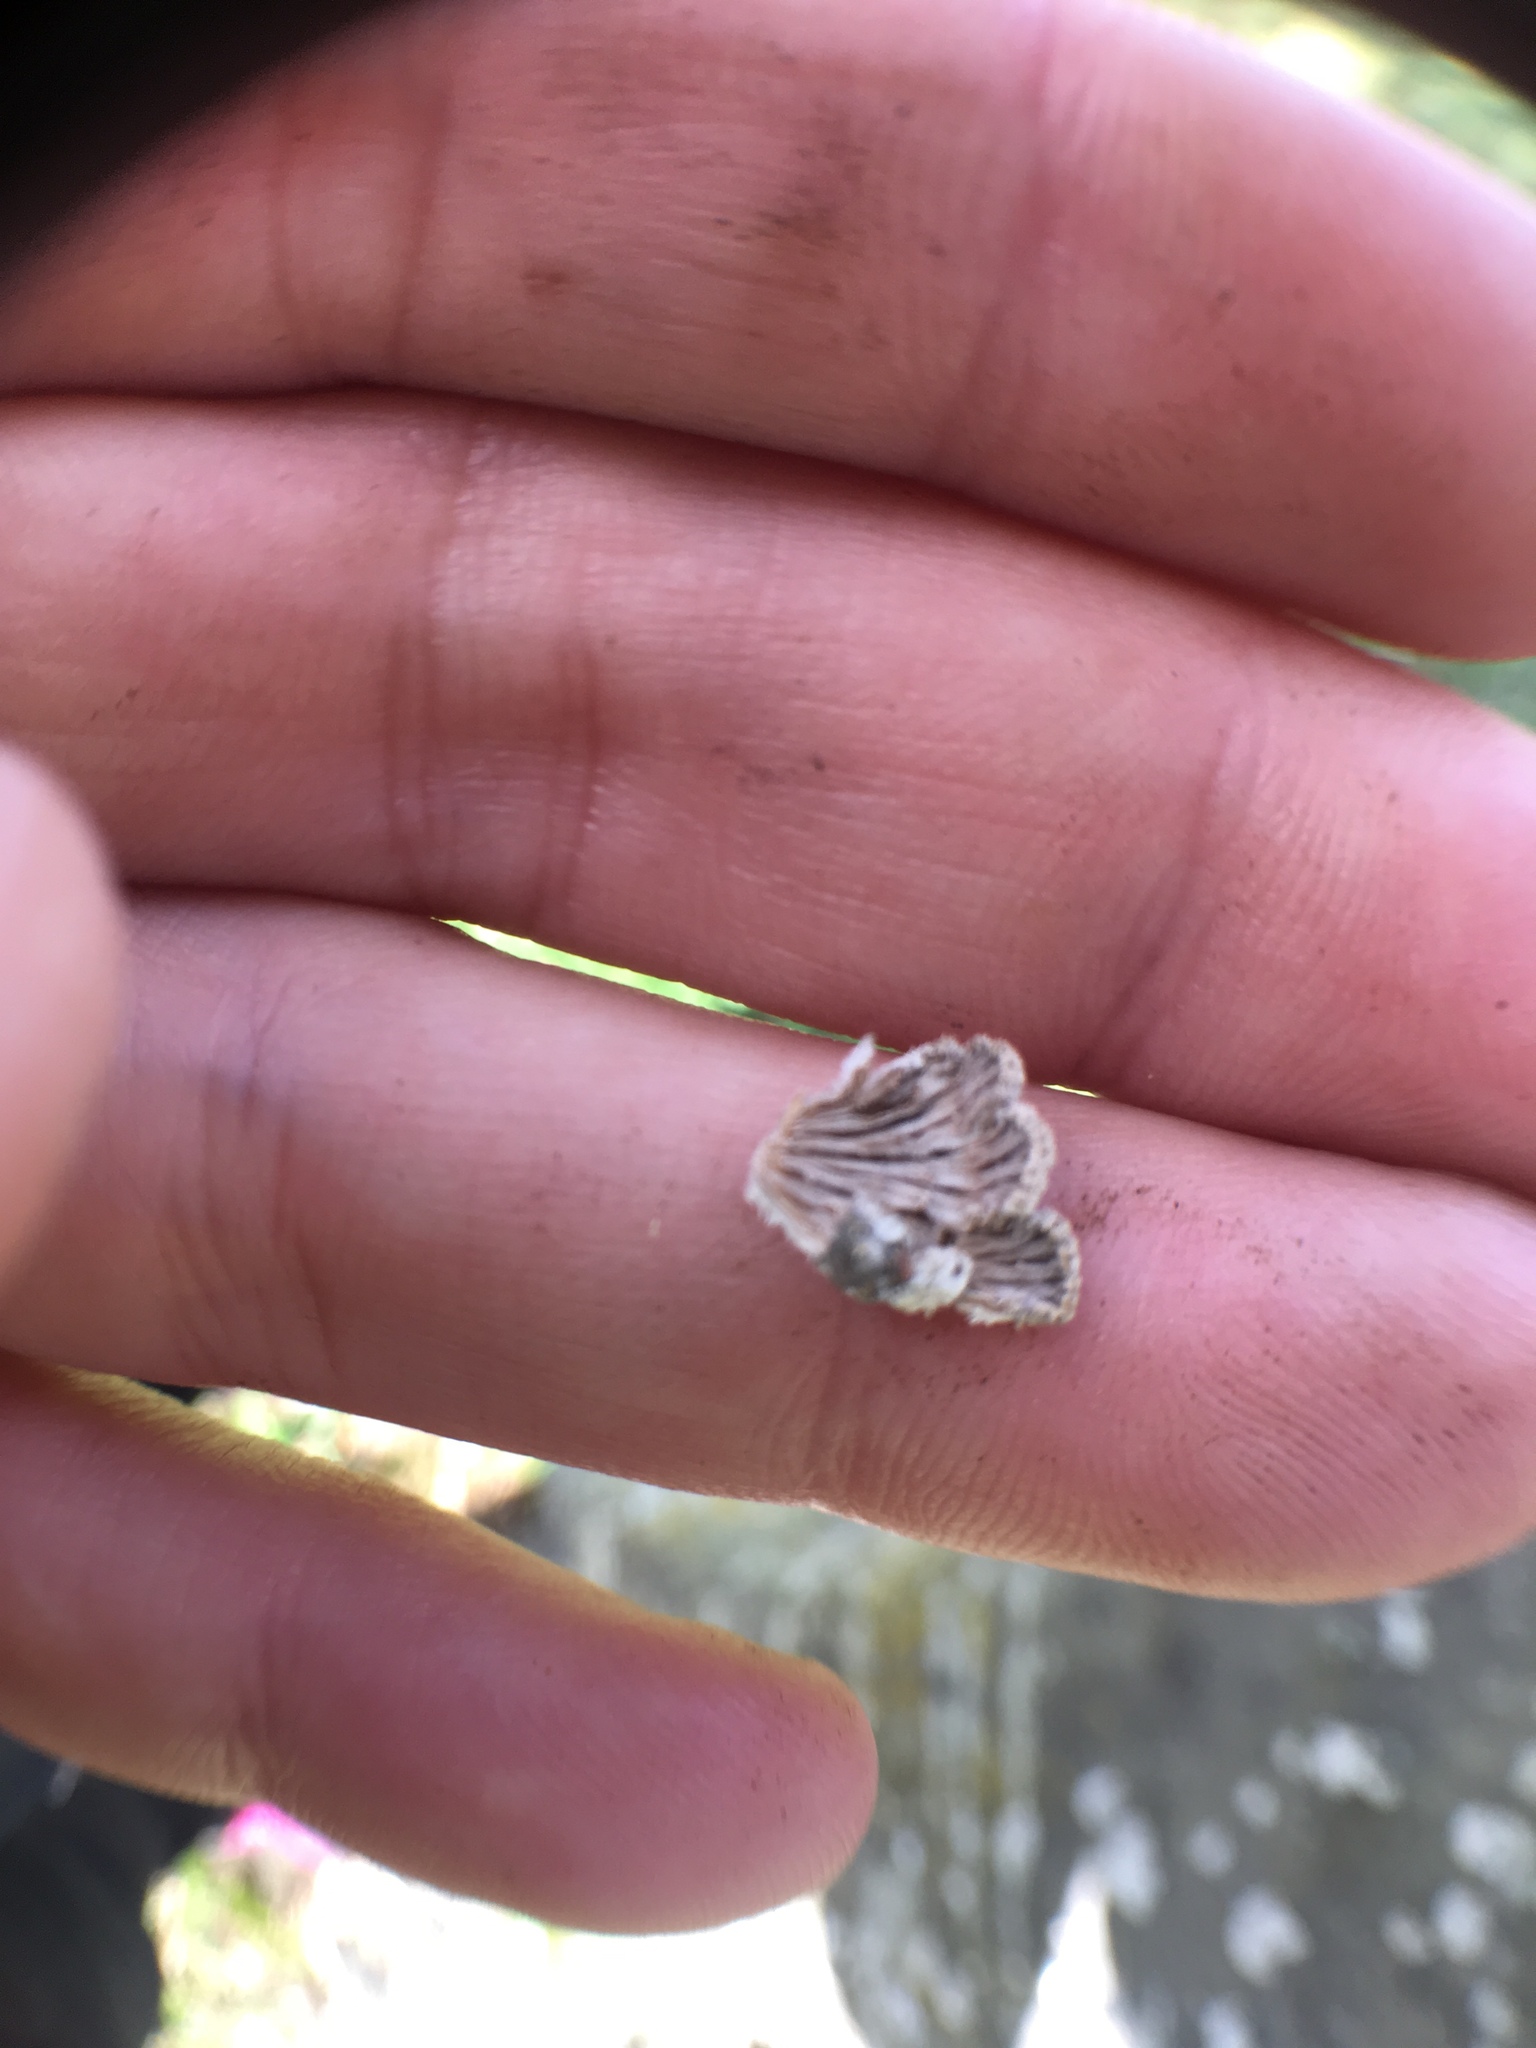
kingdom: Fungi
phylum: Basidiomycota
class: Agaricomycetes
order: Agaricales
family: Schizophyllaceae
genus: Schizophyllum
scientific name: Schizophyllum commune
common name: Common porecrust
